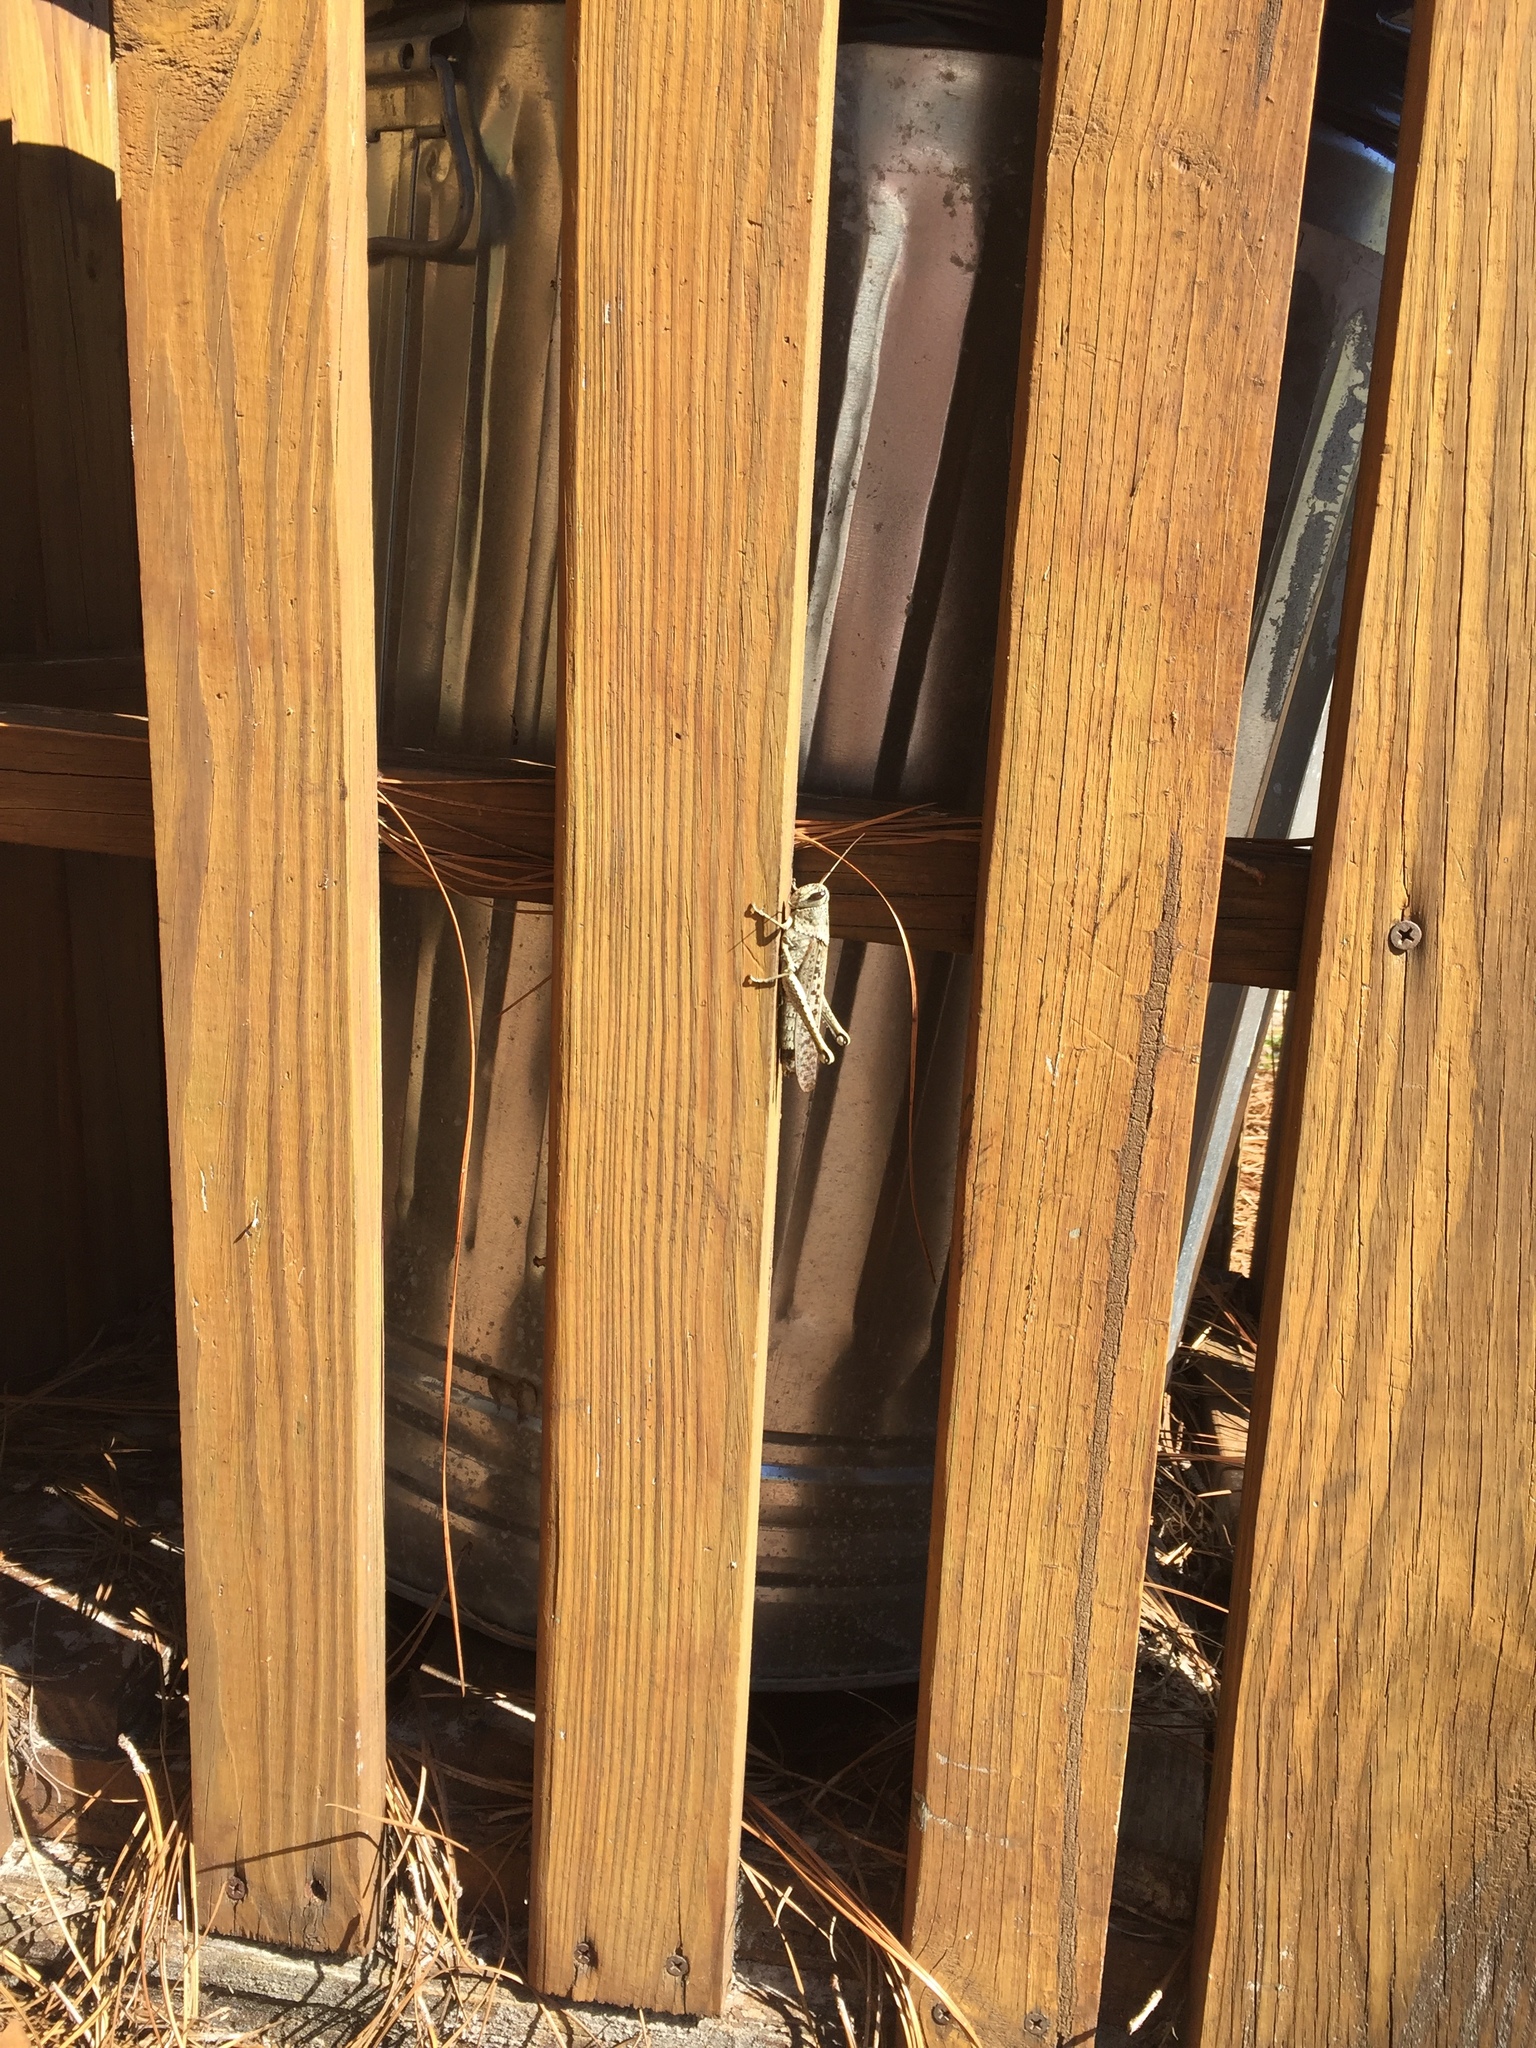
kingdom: Animalia
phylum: Arthropoda
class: Insecta
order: Orthoptera
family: Acrididae
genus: Schistocerca
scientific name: Schistocerca rubiginosa
